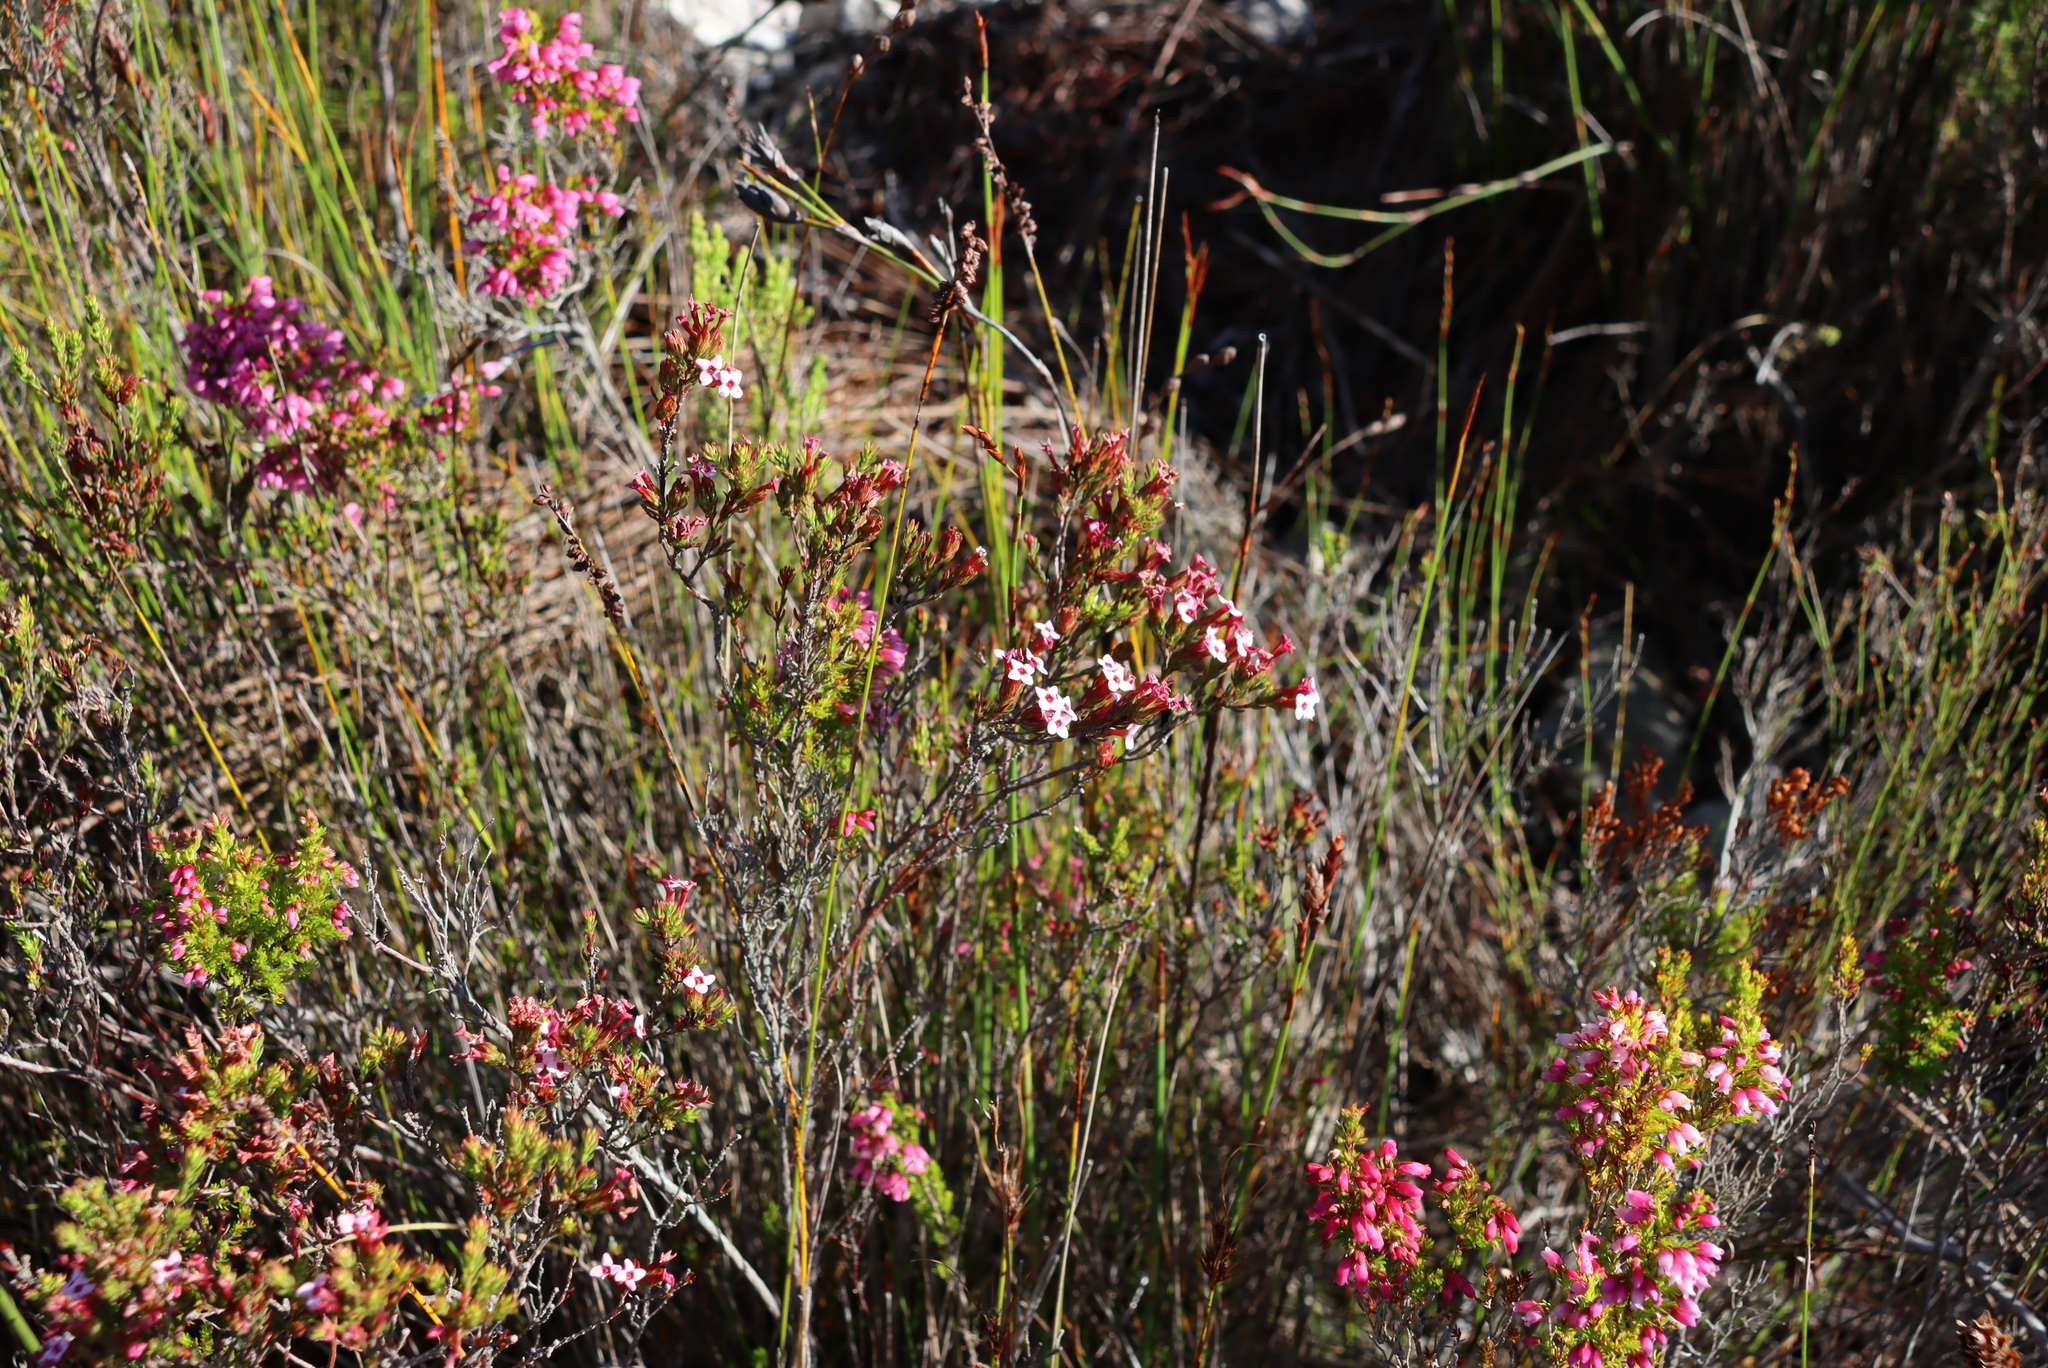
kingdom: Plantae
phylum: Tracheophyta
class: Magnoliopsida
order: Ericales
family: Ericaceae
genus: Erica
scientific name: Erica fastigiata
